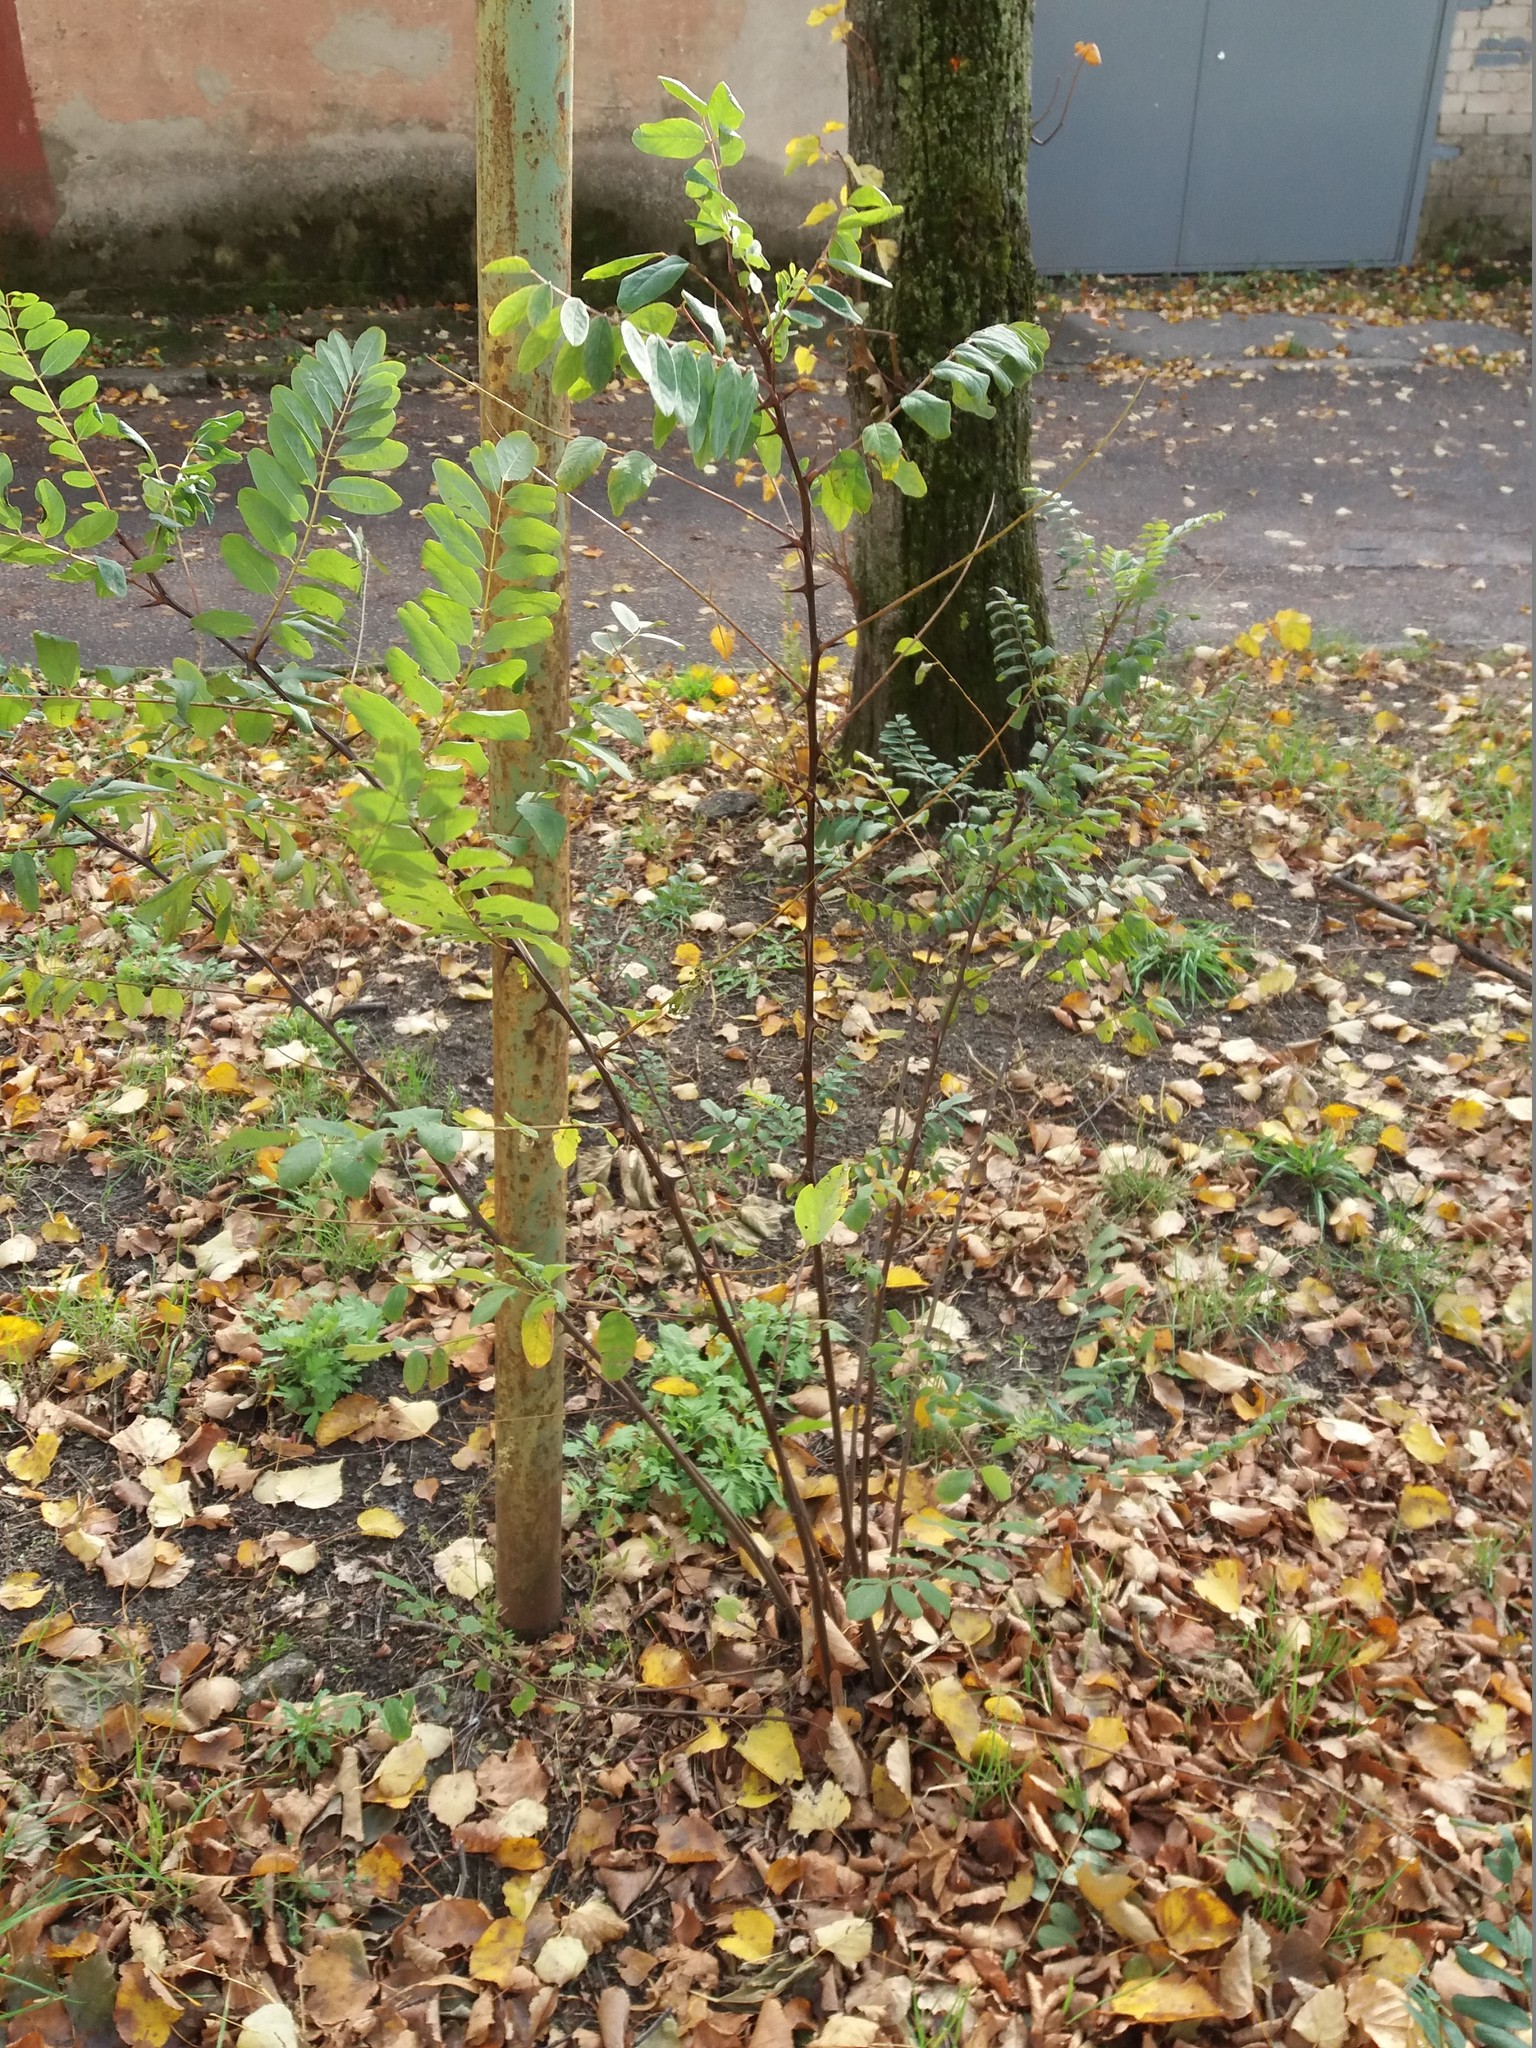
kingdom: Plantae
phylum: Tracheophyta
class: Magnoliopsida
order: Fabales
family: Fabaceae
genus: Robinia
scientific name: Robinia pseudoacacia
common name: Black locust
